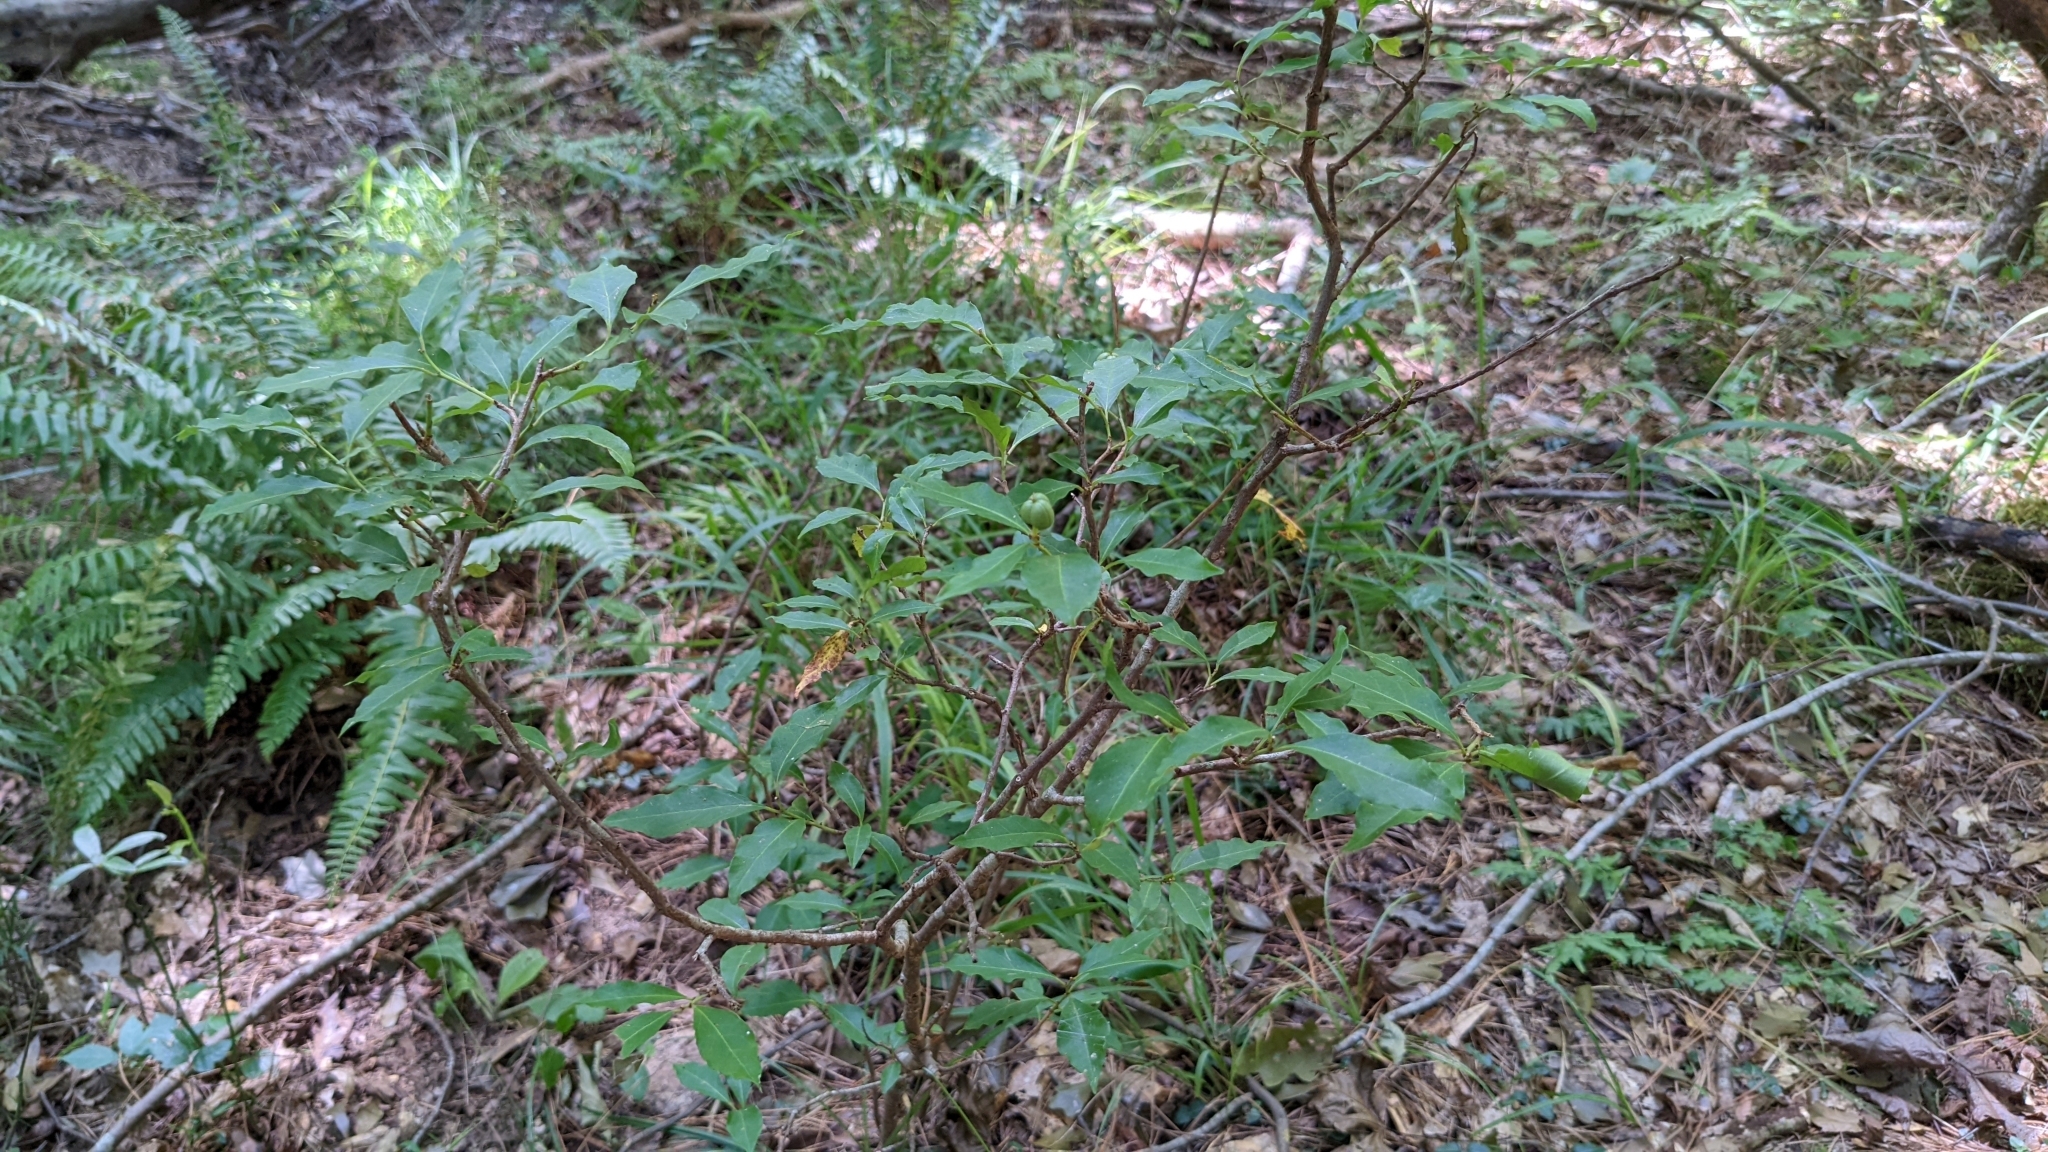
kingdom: Plantae
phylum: Tracheophyta
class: Magnoliopsida
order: Malpighiales
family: Euphorbiaceae
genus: Ditrysinia
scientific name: Ditrysinia fruticosa
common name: Gulf sebastian-bush
